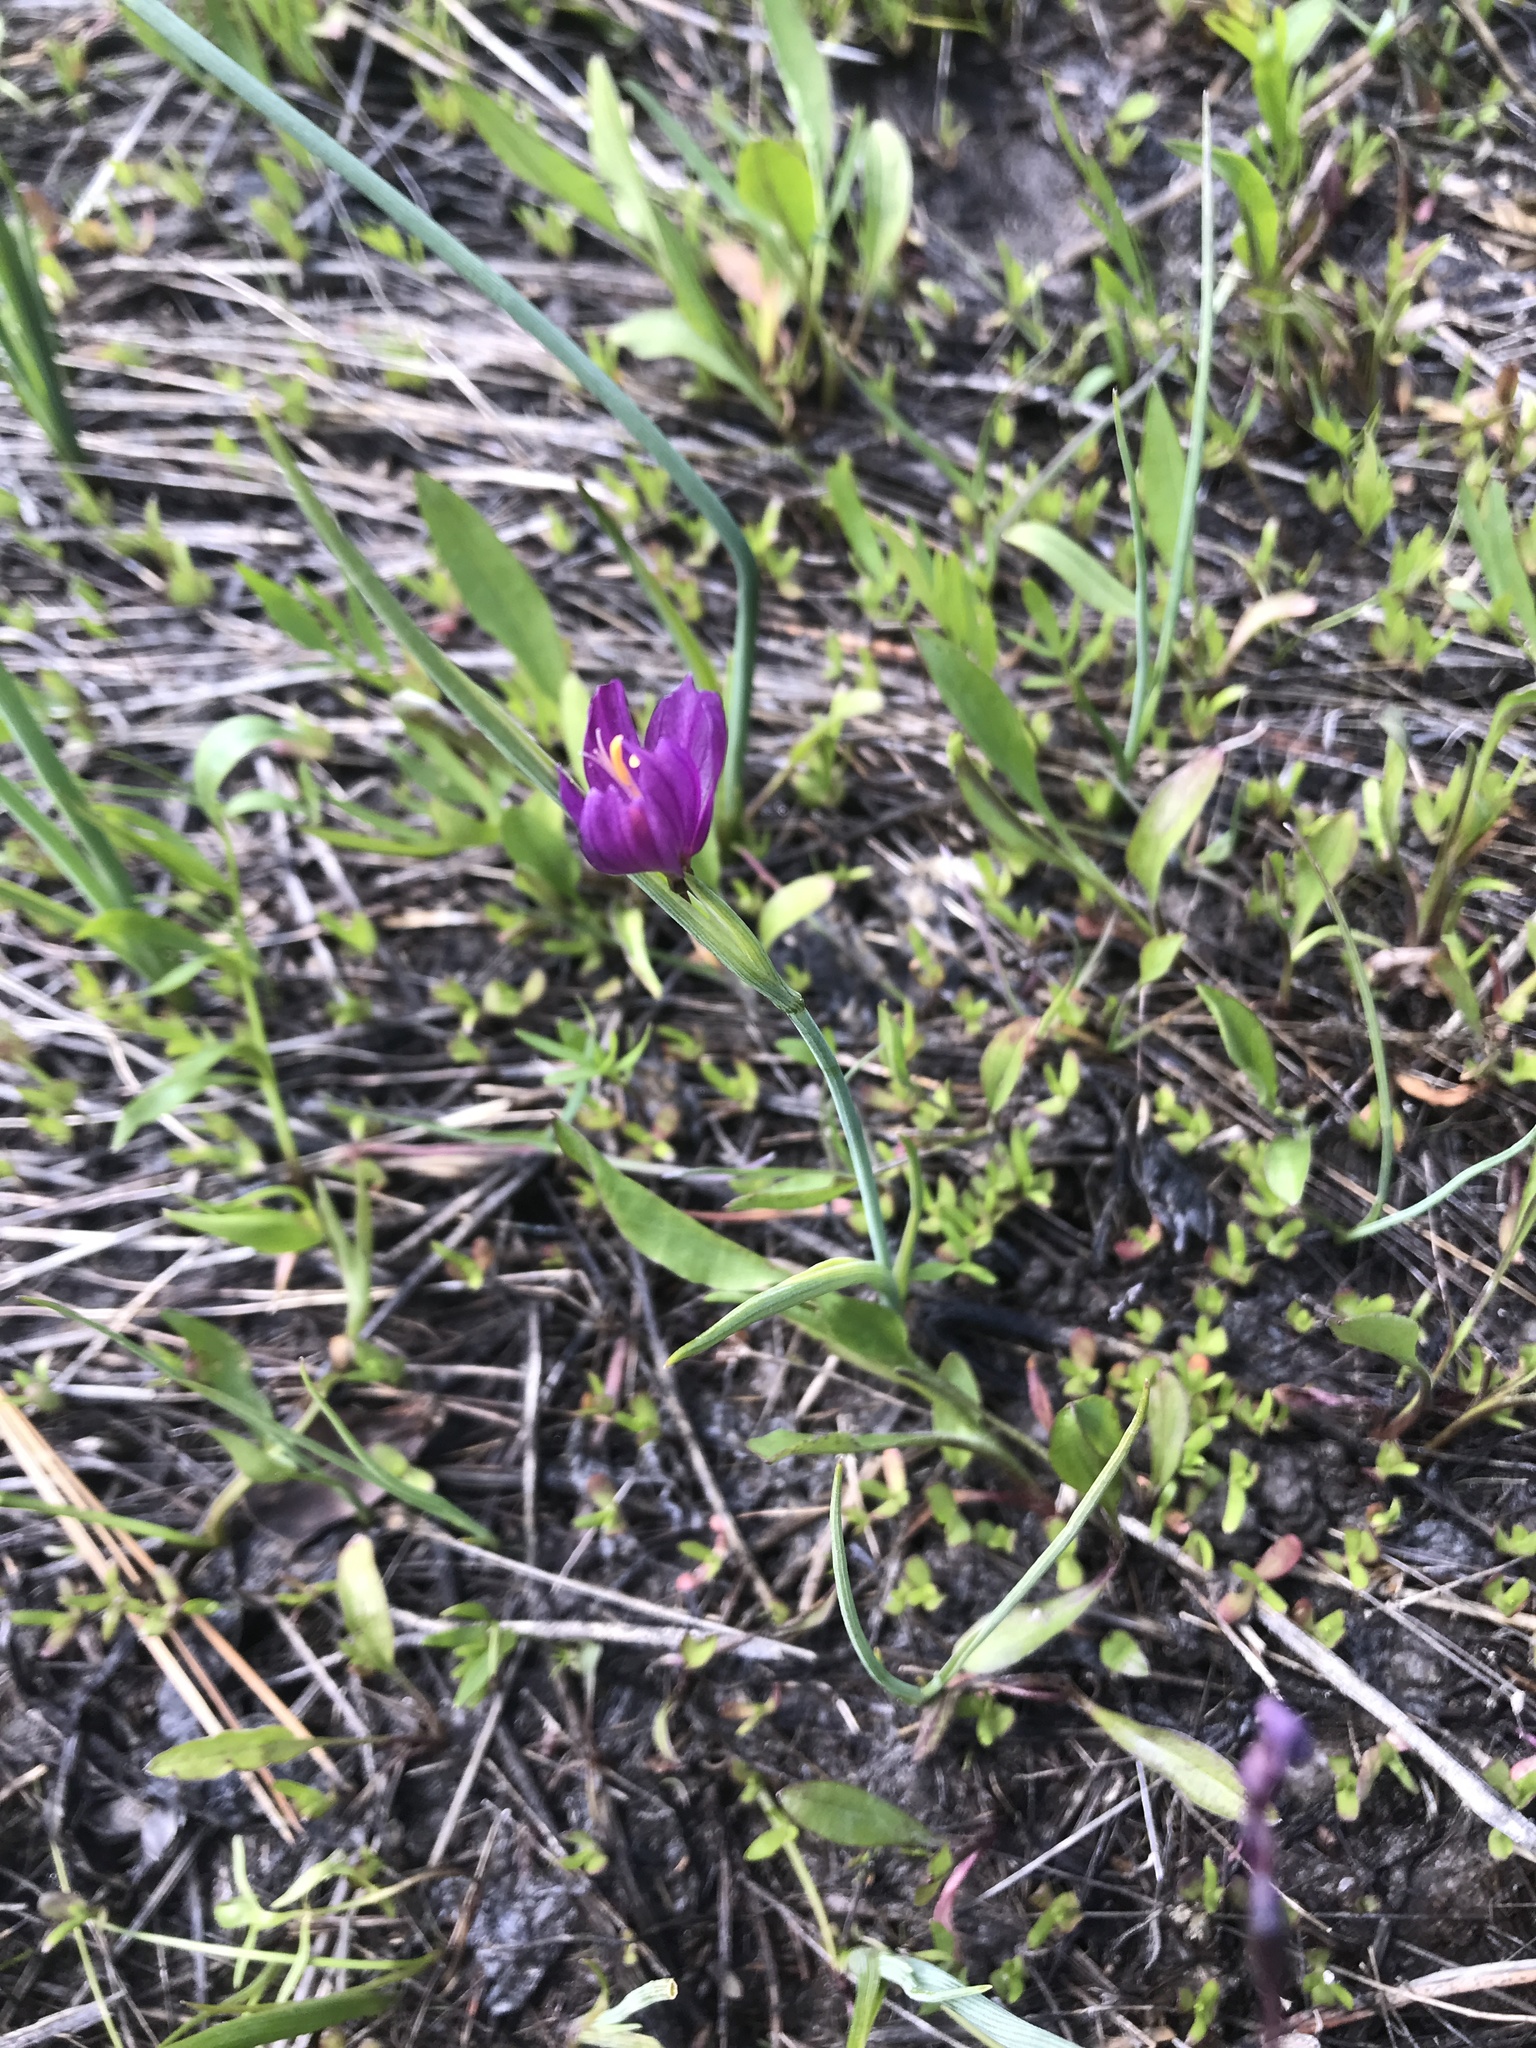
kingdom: Plantae
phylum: Tracheophyta
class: Liliopsida
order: Asparagales
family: Iridaceae
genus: Olsynium
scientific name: Olsynium douglasii
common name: Douglas' grasswidow
